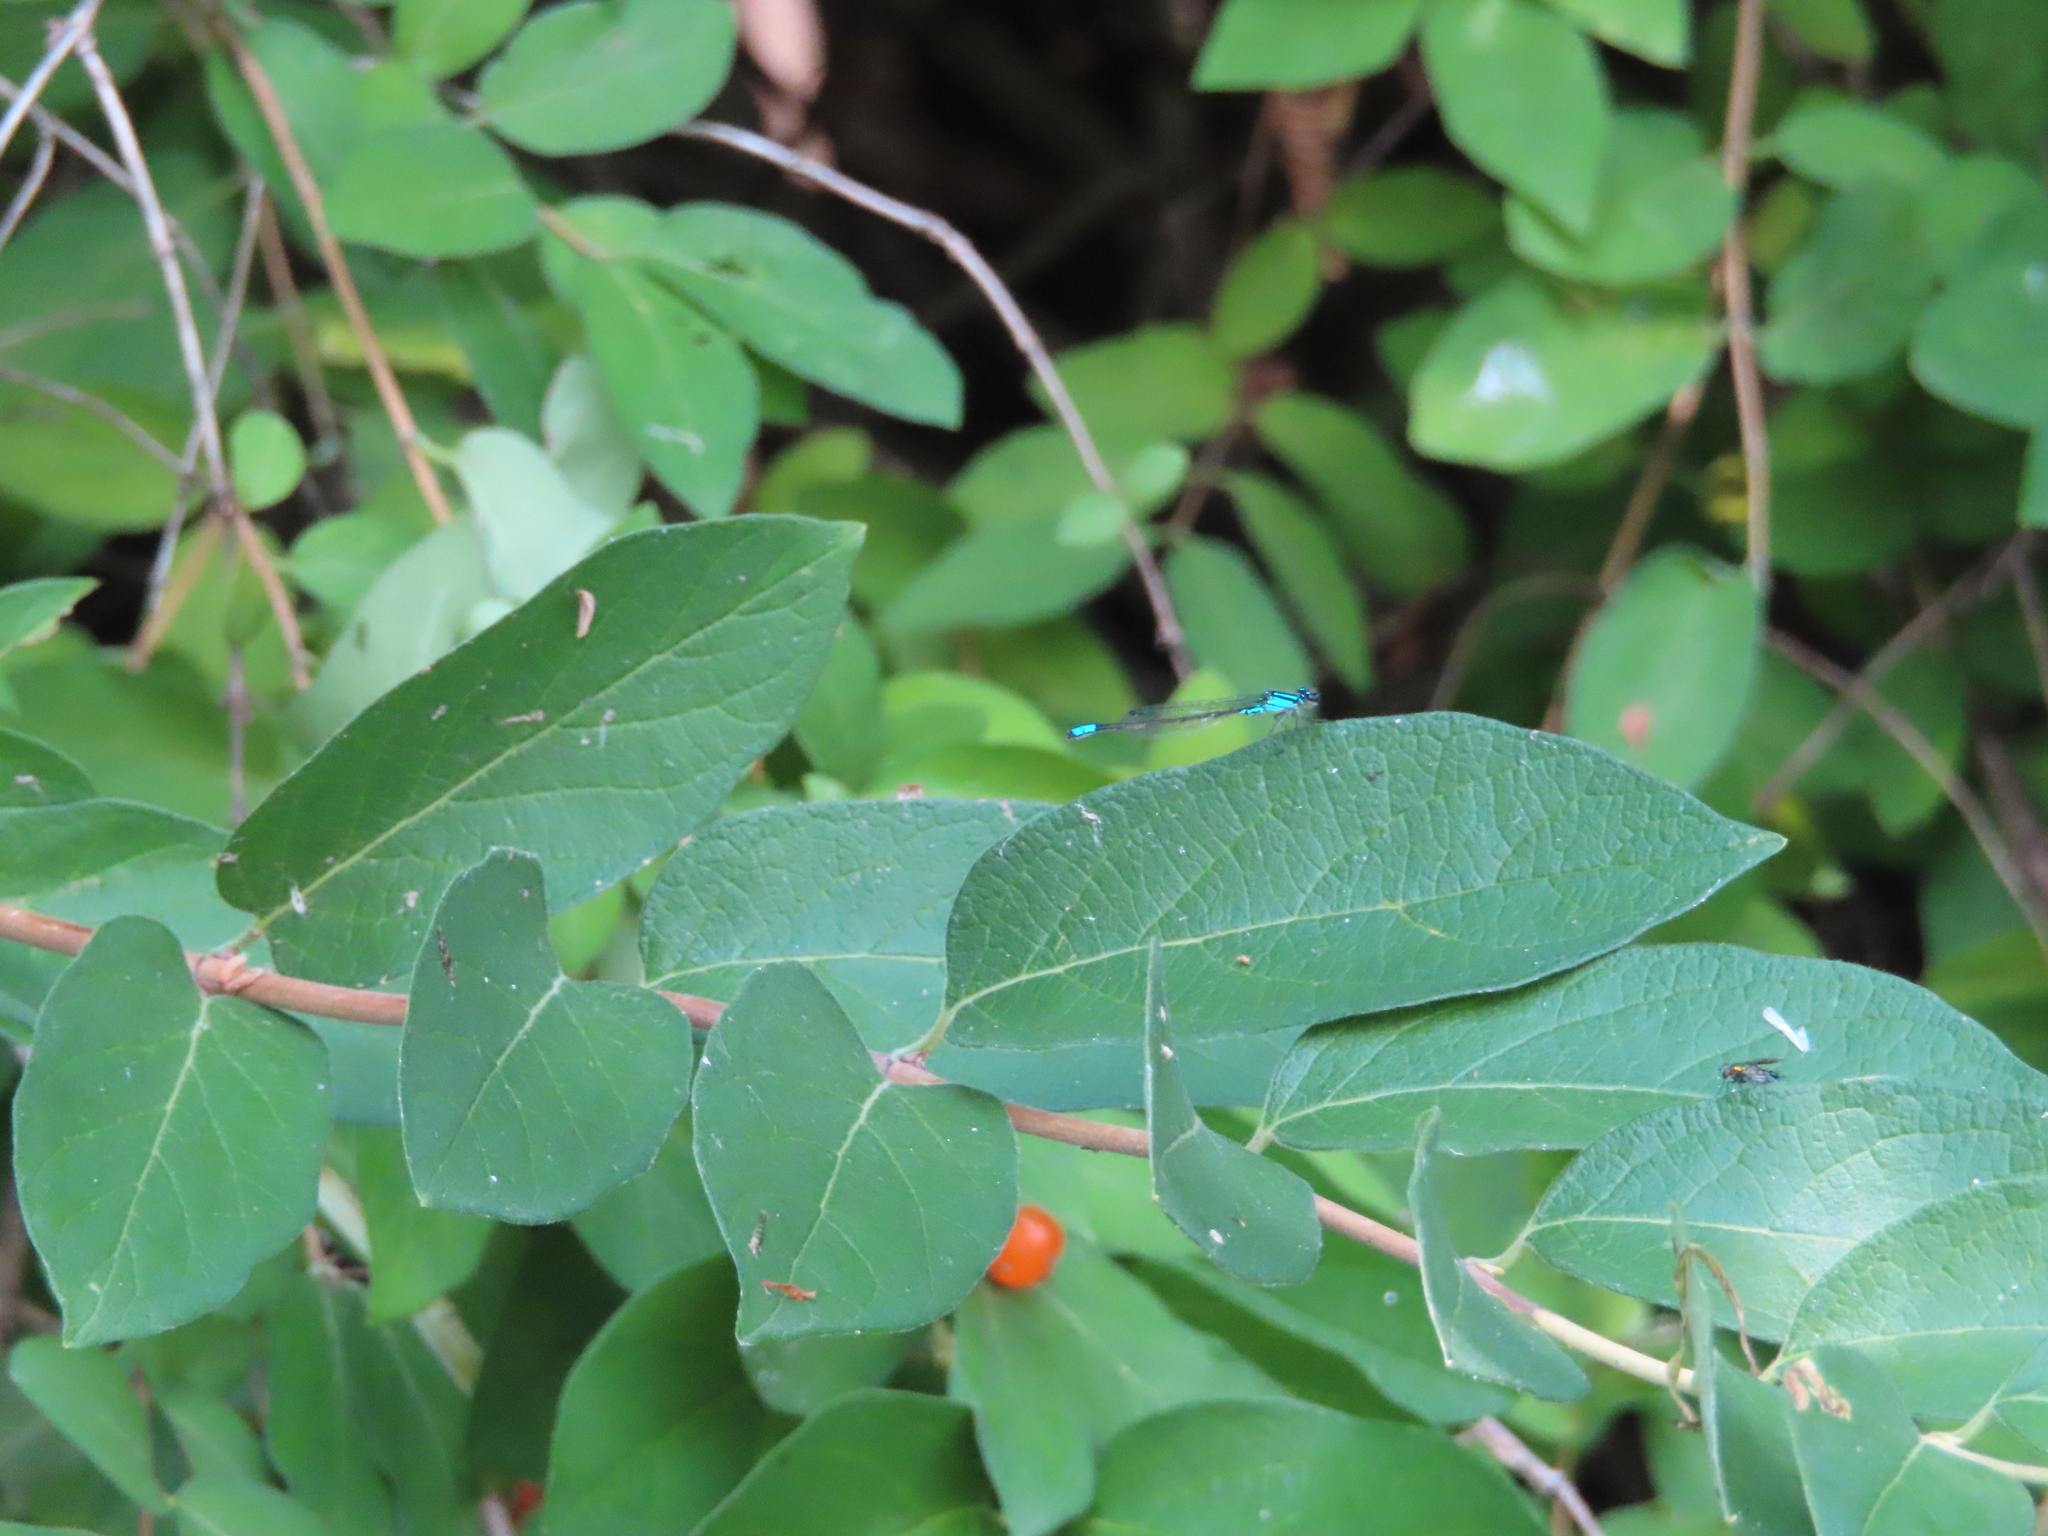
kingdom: Animalia
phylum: Arthropoda
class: Insecta
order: Odonata
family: Coenagrionidae
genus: Enallagma
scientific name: Enallagma geminatum
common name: Skimming bluet
